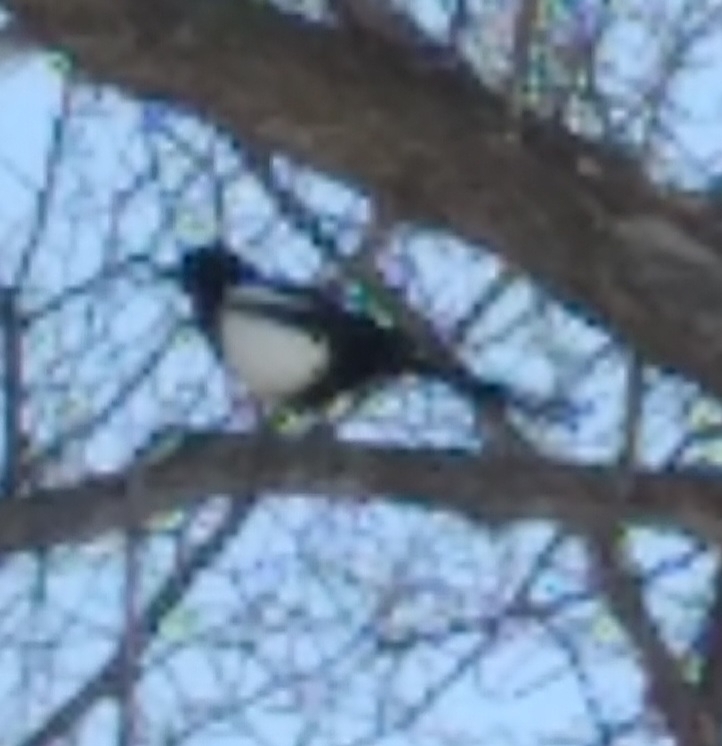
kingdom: Animalia
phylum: Chordata
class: Aves
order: Passeriformes
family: Corvidae
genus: Pica
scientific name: Pica hudsonia
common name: Black-billed magpie
